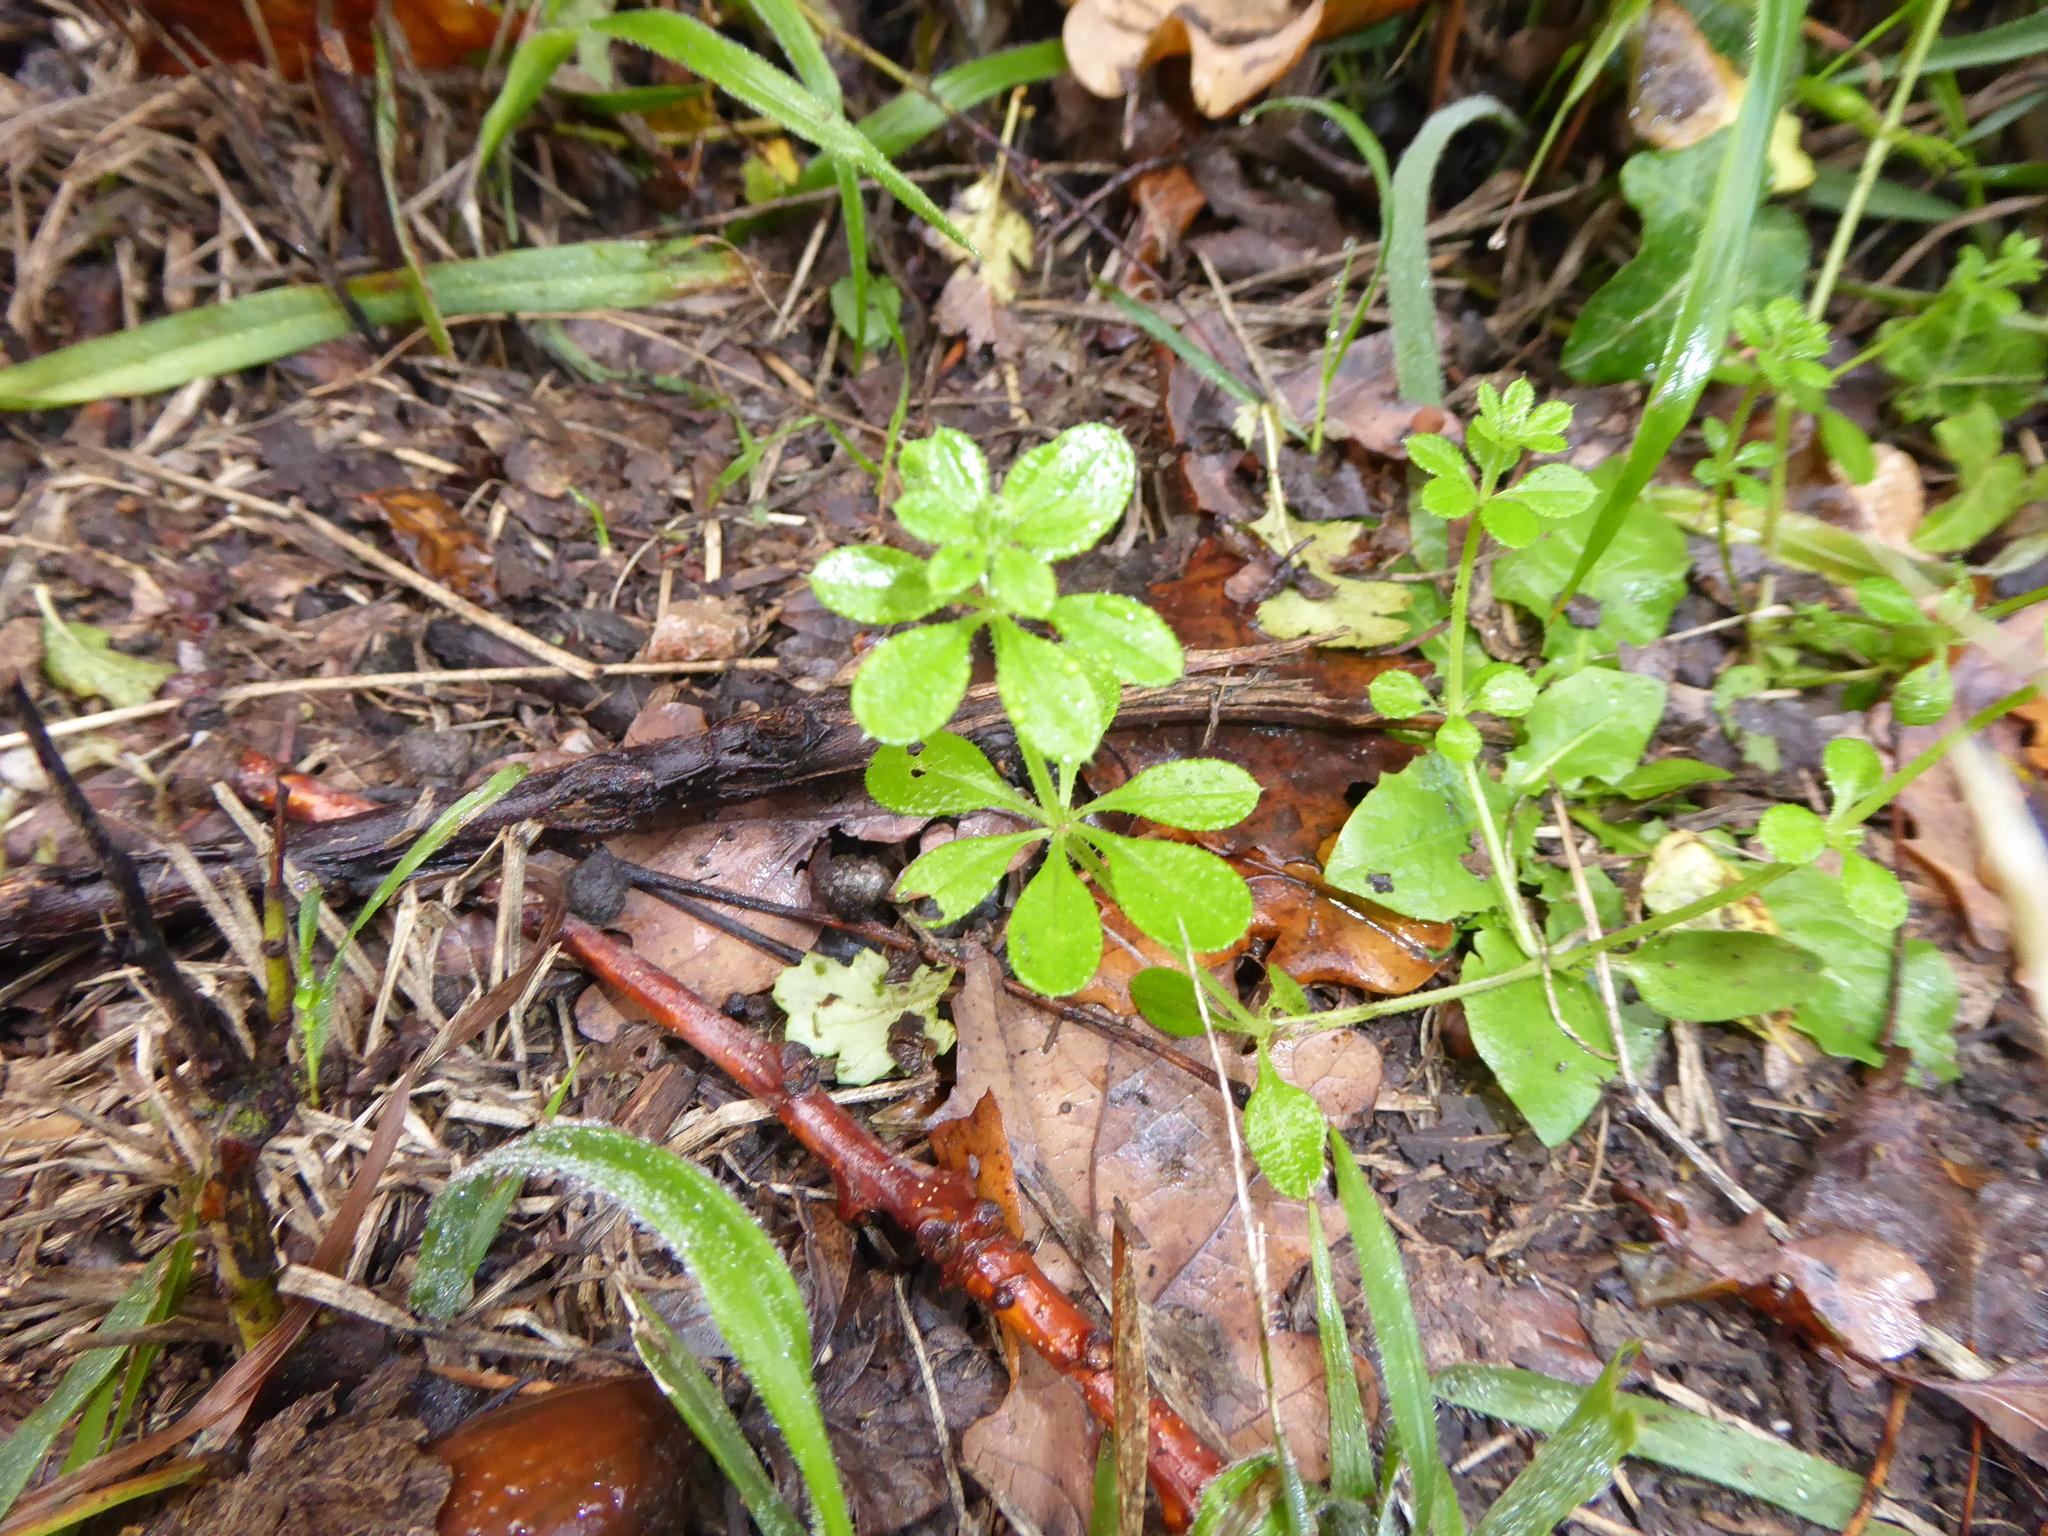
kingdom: Plantae
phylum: Tracheophyta
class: Magnoliopsida
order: Gentianales
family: Rubiaceae
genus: Galium
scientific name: Galium aparine
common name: Cleavers
